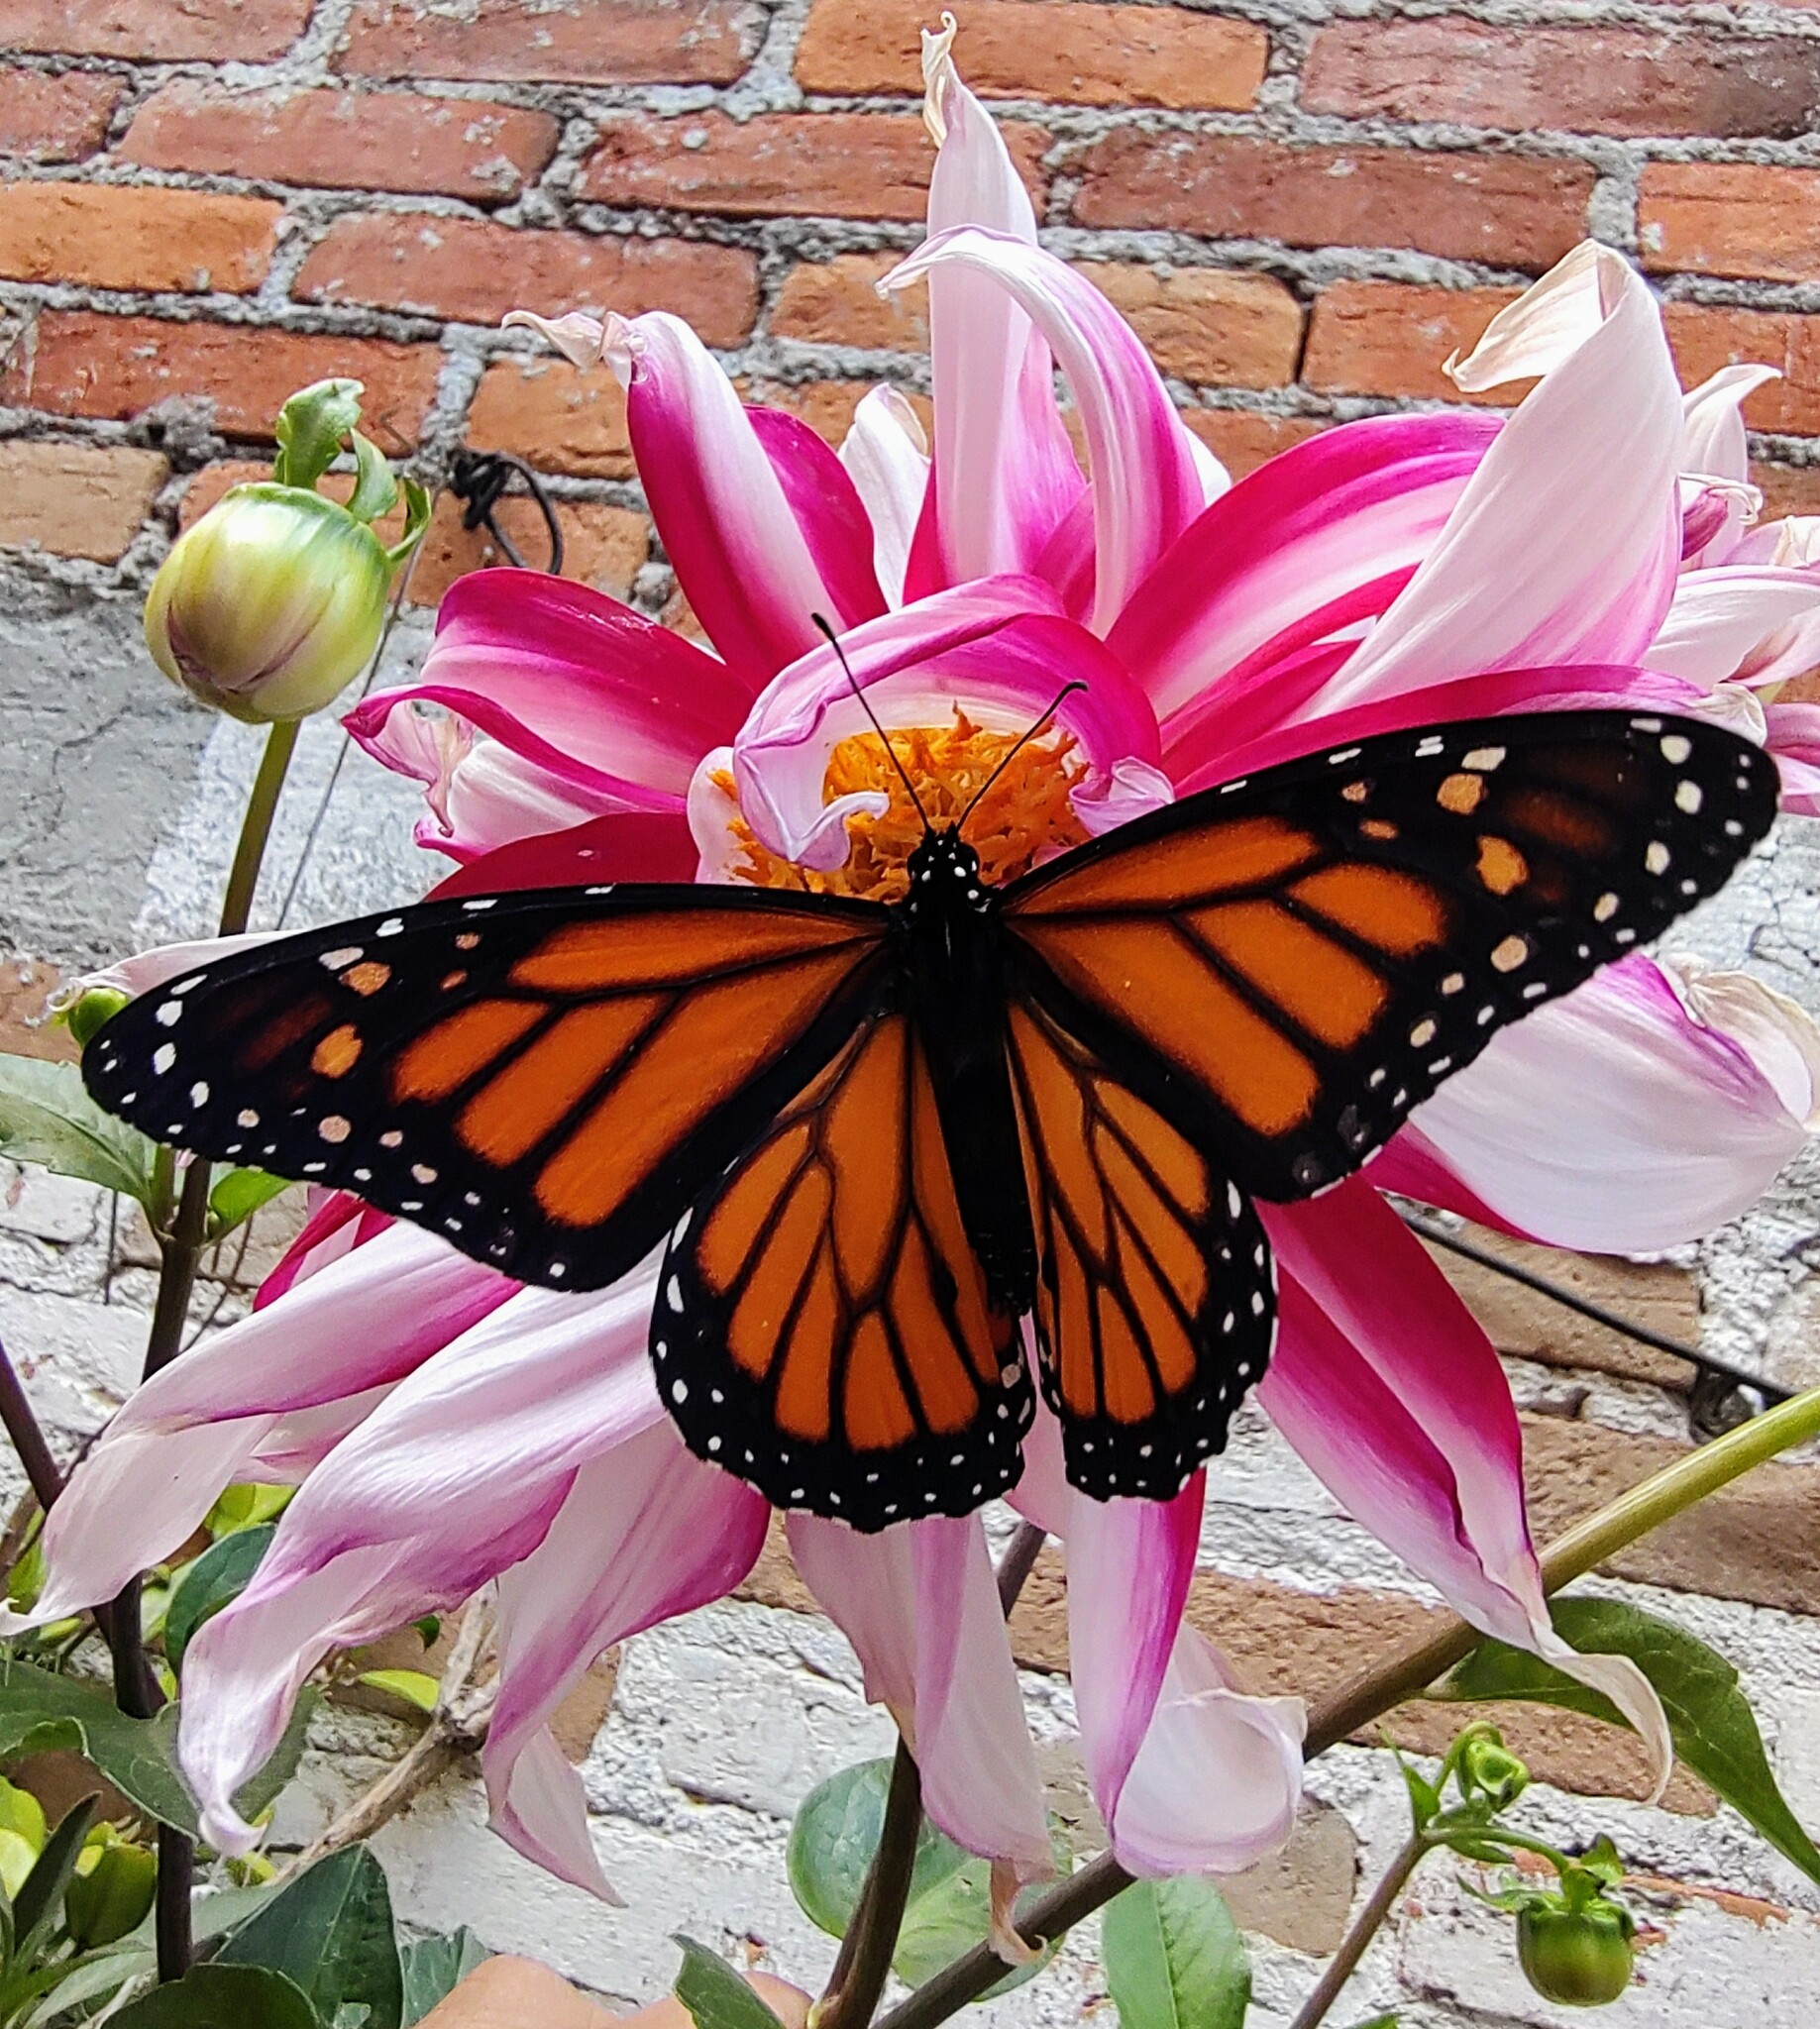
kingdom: Animalia
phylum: Arthropoda
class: Insecta
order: Lepidoptera
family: Nymphalidae
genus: Danaus
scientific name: Danaus plexippus
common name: Monarch
